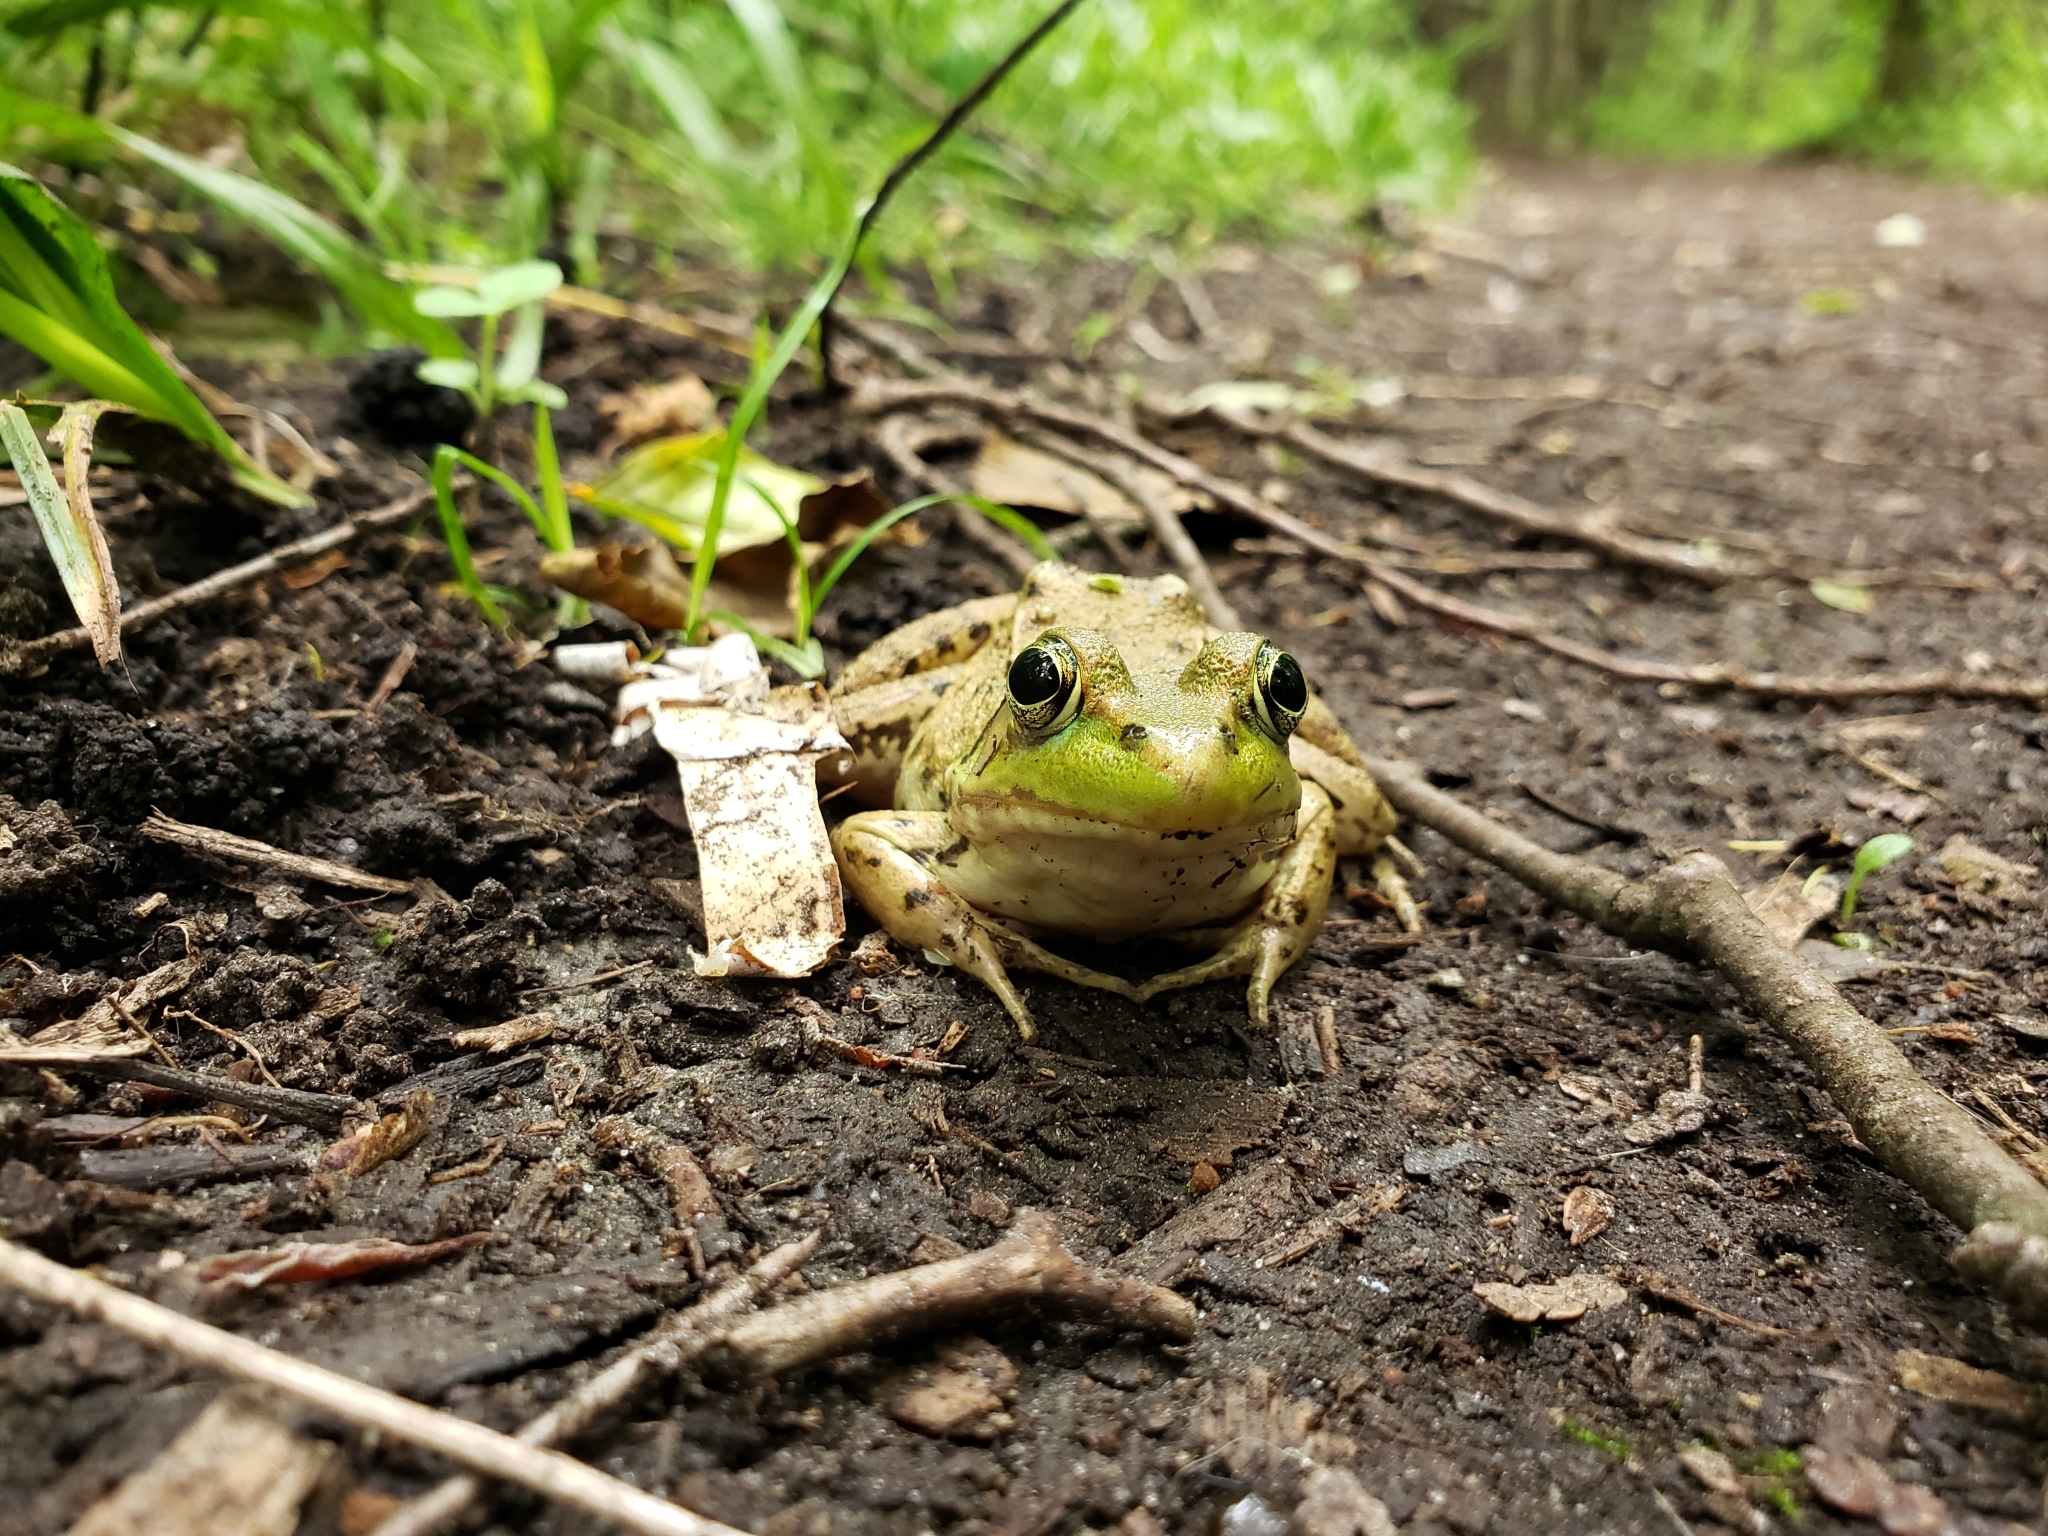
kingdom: Animalia
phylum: Chordata
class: Amphibia
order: Anura
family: Ranidae
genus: Lithobates
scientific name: Lithobates clamitans
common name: Green frog
